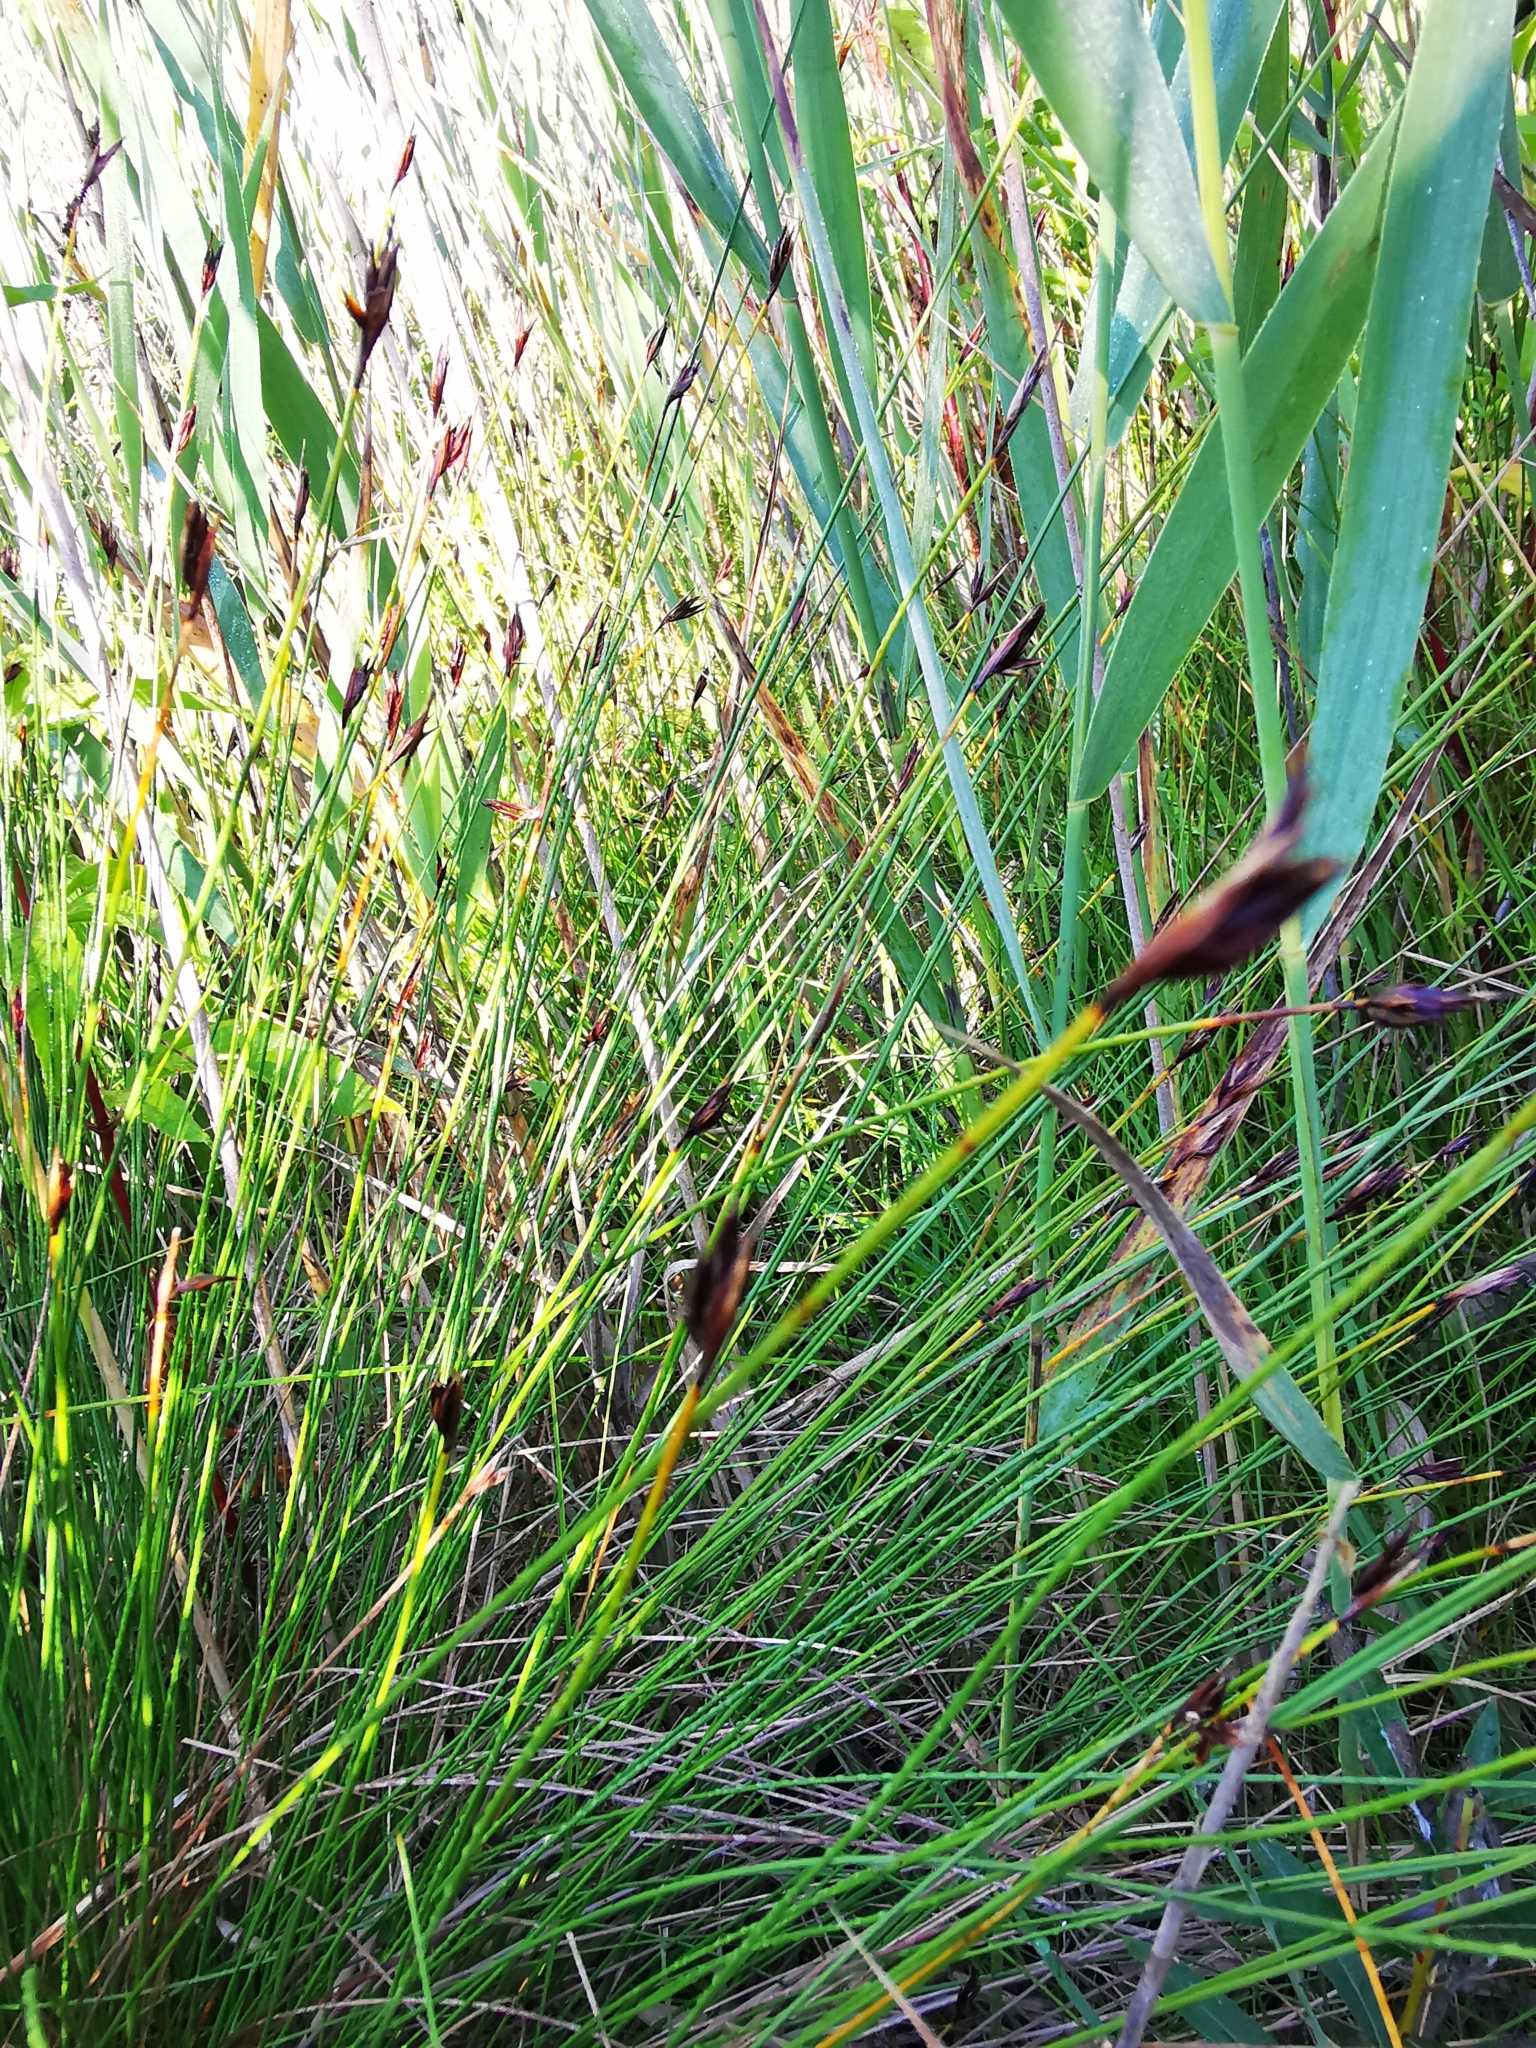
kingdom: Plantae
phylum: Tracheophyta
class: Liliopsida
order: Poales
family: Cyperaceae
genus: Schoenus
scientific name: Schoenus ferrugineus
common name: Brown bog-rush
